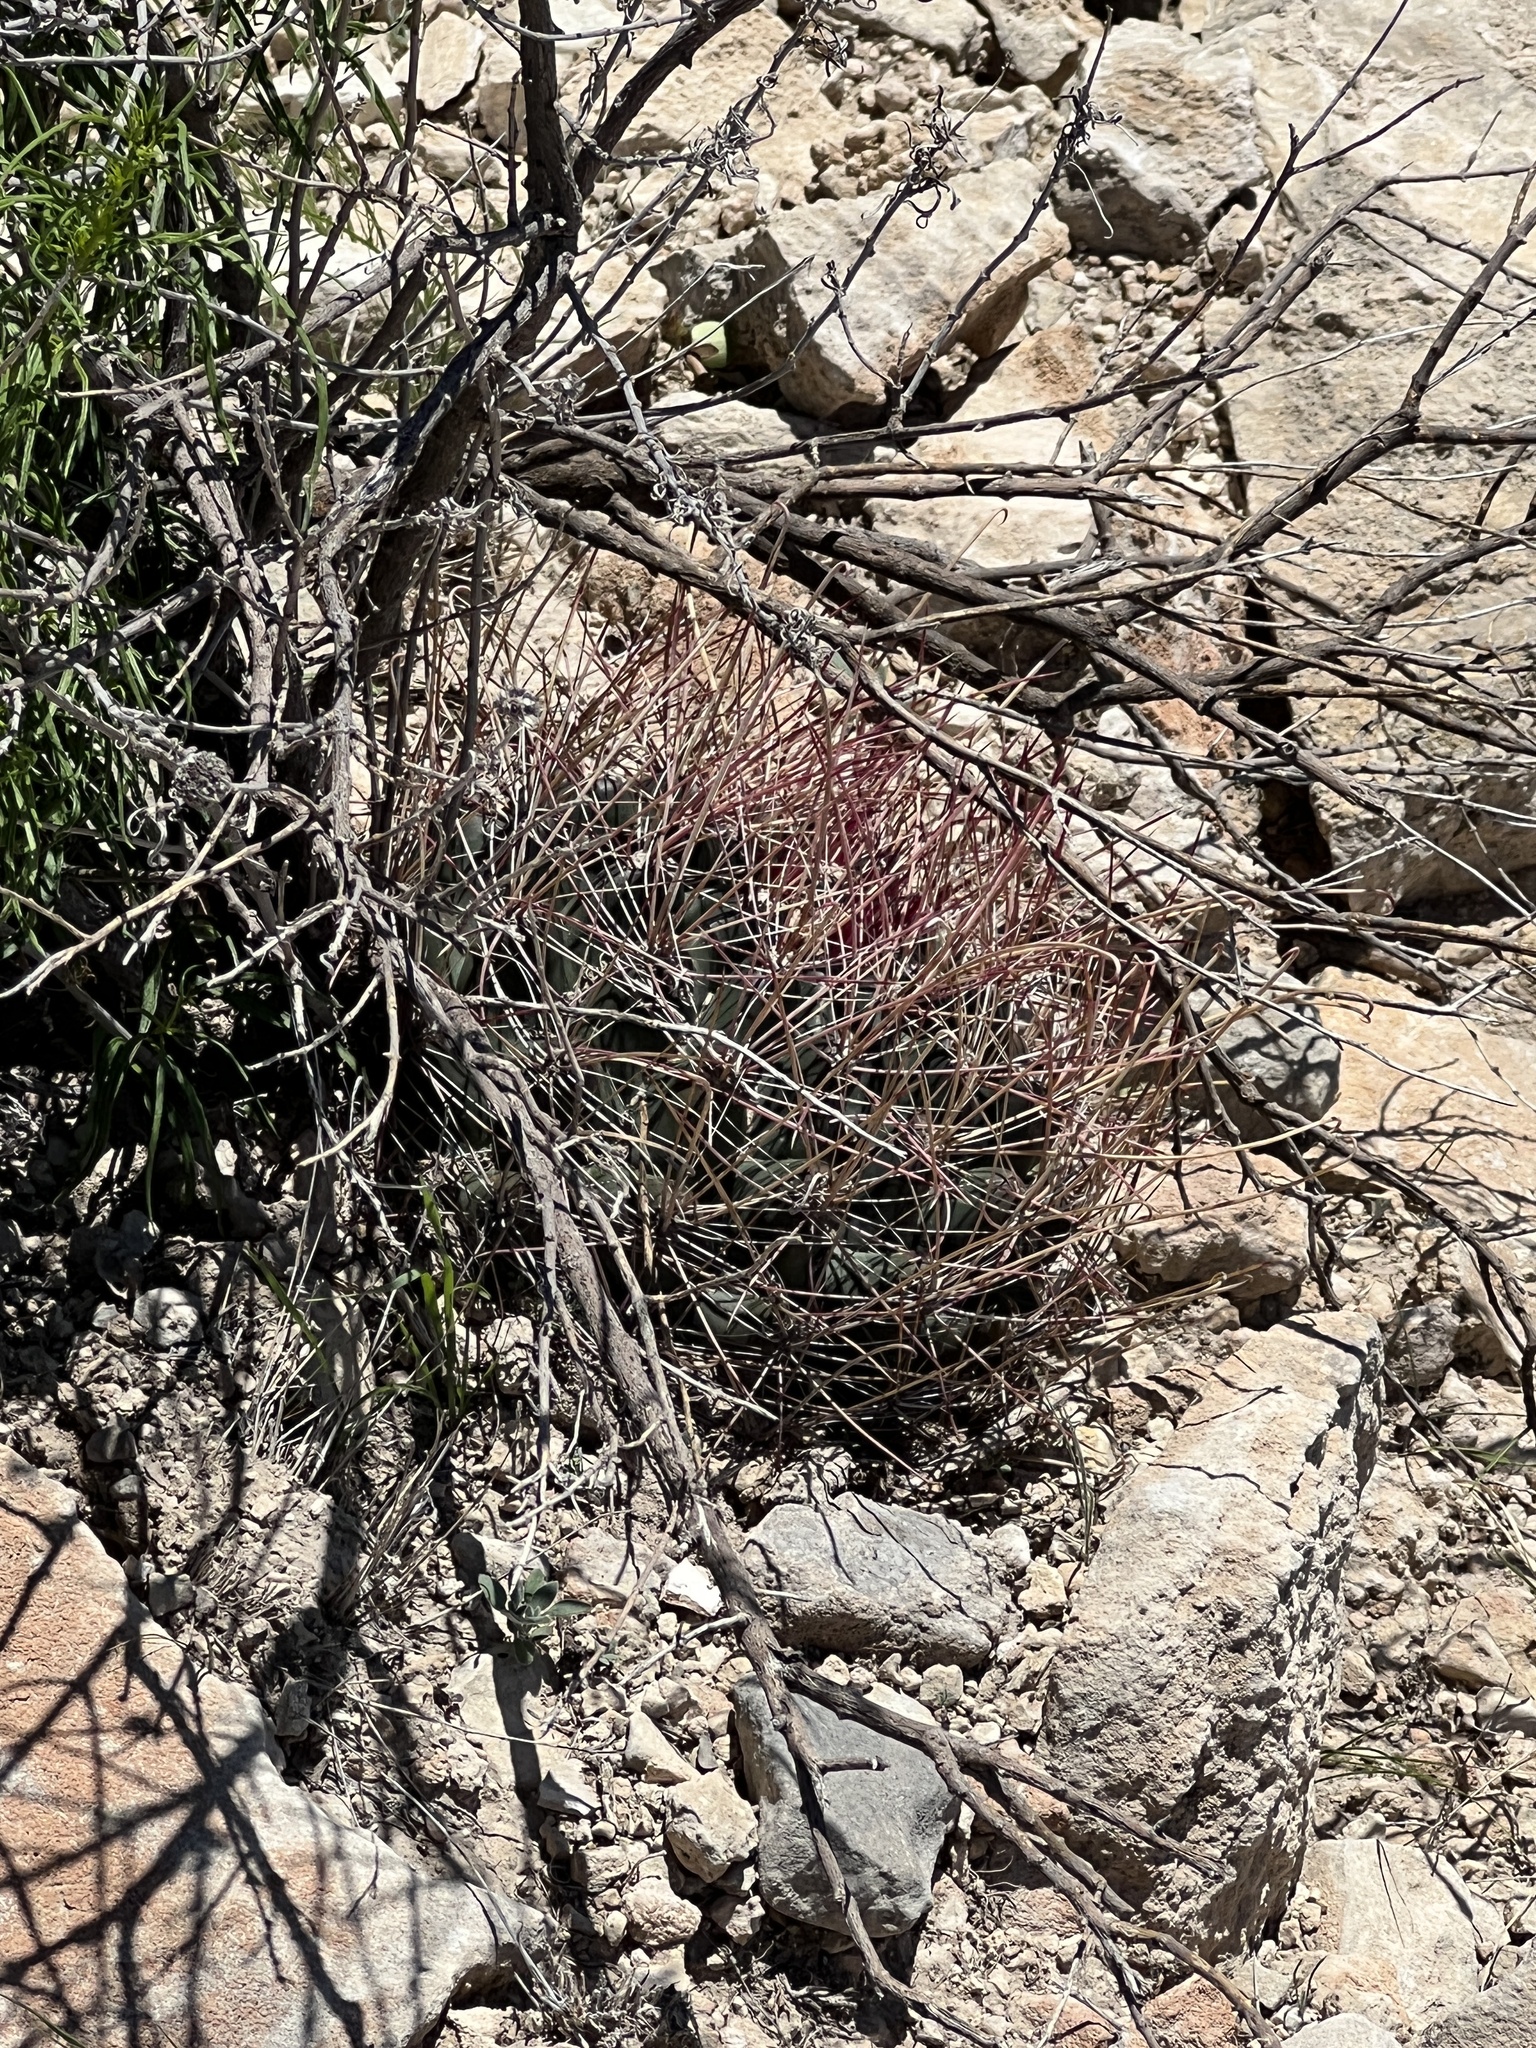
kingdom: Plantae
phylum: Tracheophyta
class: Magnoliopsida
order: Caryophyllales
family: Cactaceae
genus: Bisnaga
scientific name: Bisnaga hamatacantha
